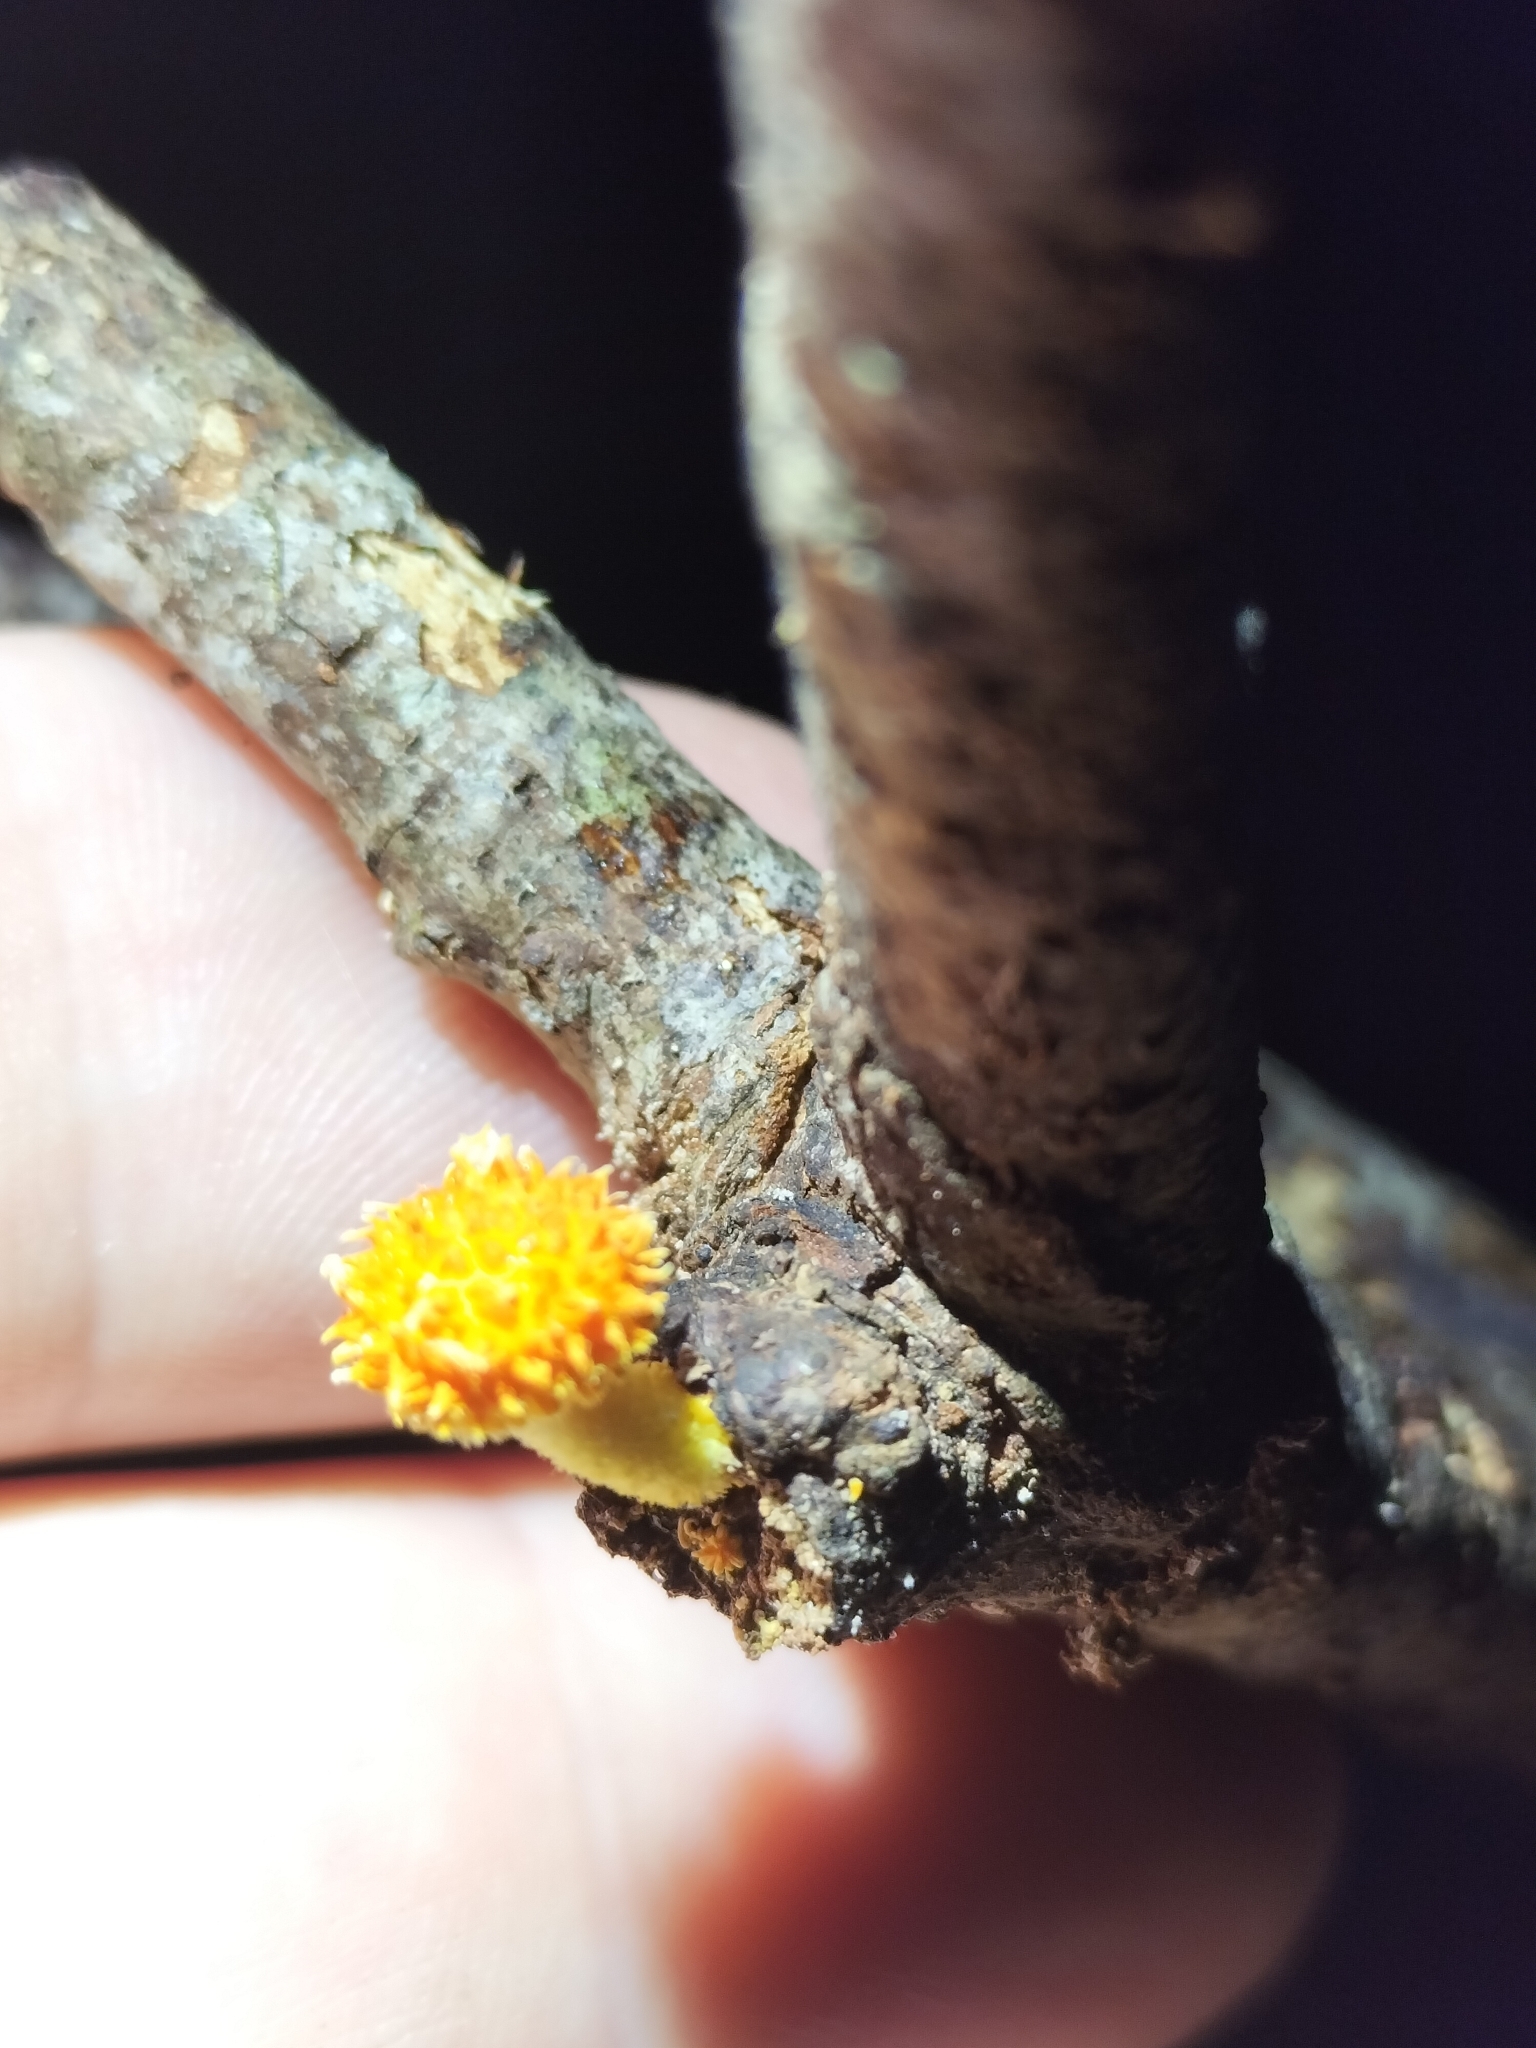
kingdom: Fungi
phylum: Basidiomycota
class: Agaricomycetes
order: Agaricales
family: Physalacriaceae
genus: Cyptotrama
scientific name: Cyptotrama asprata
